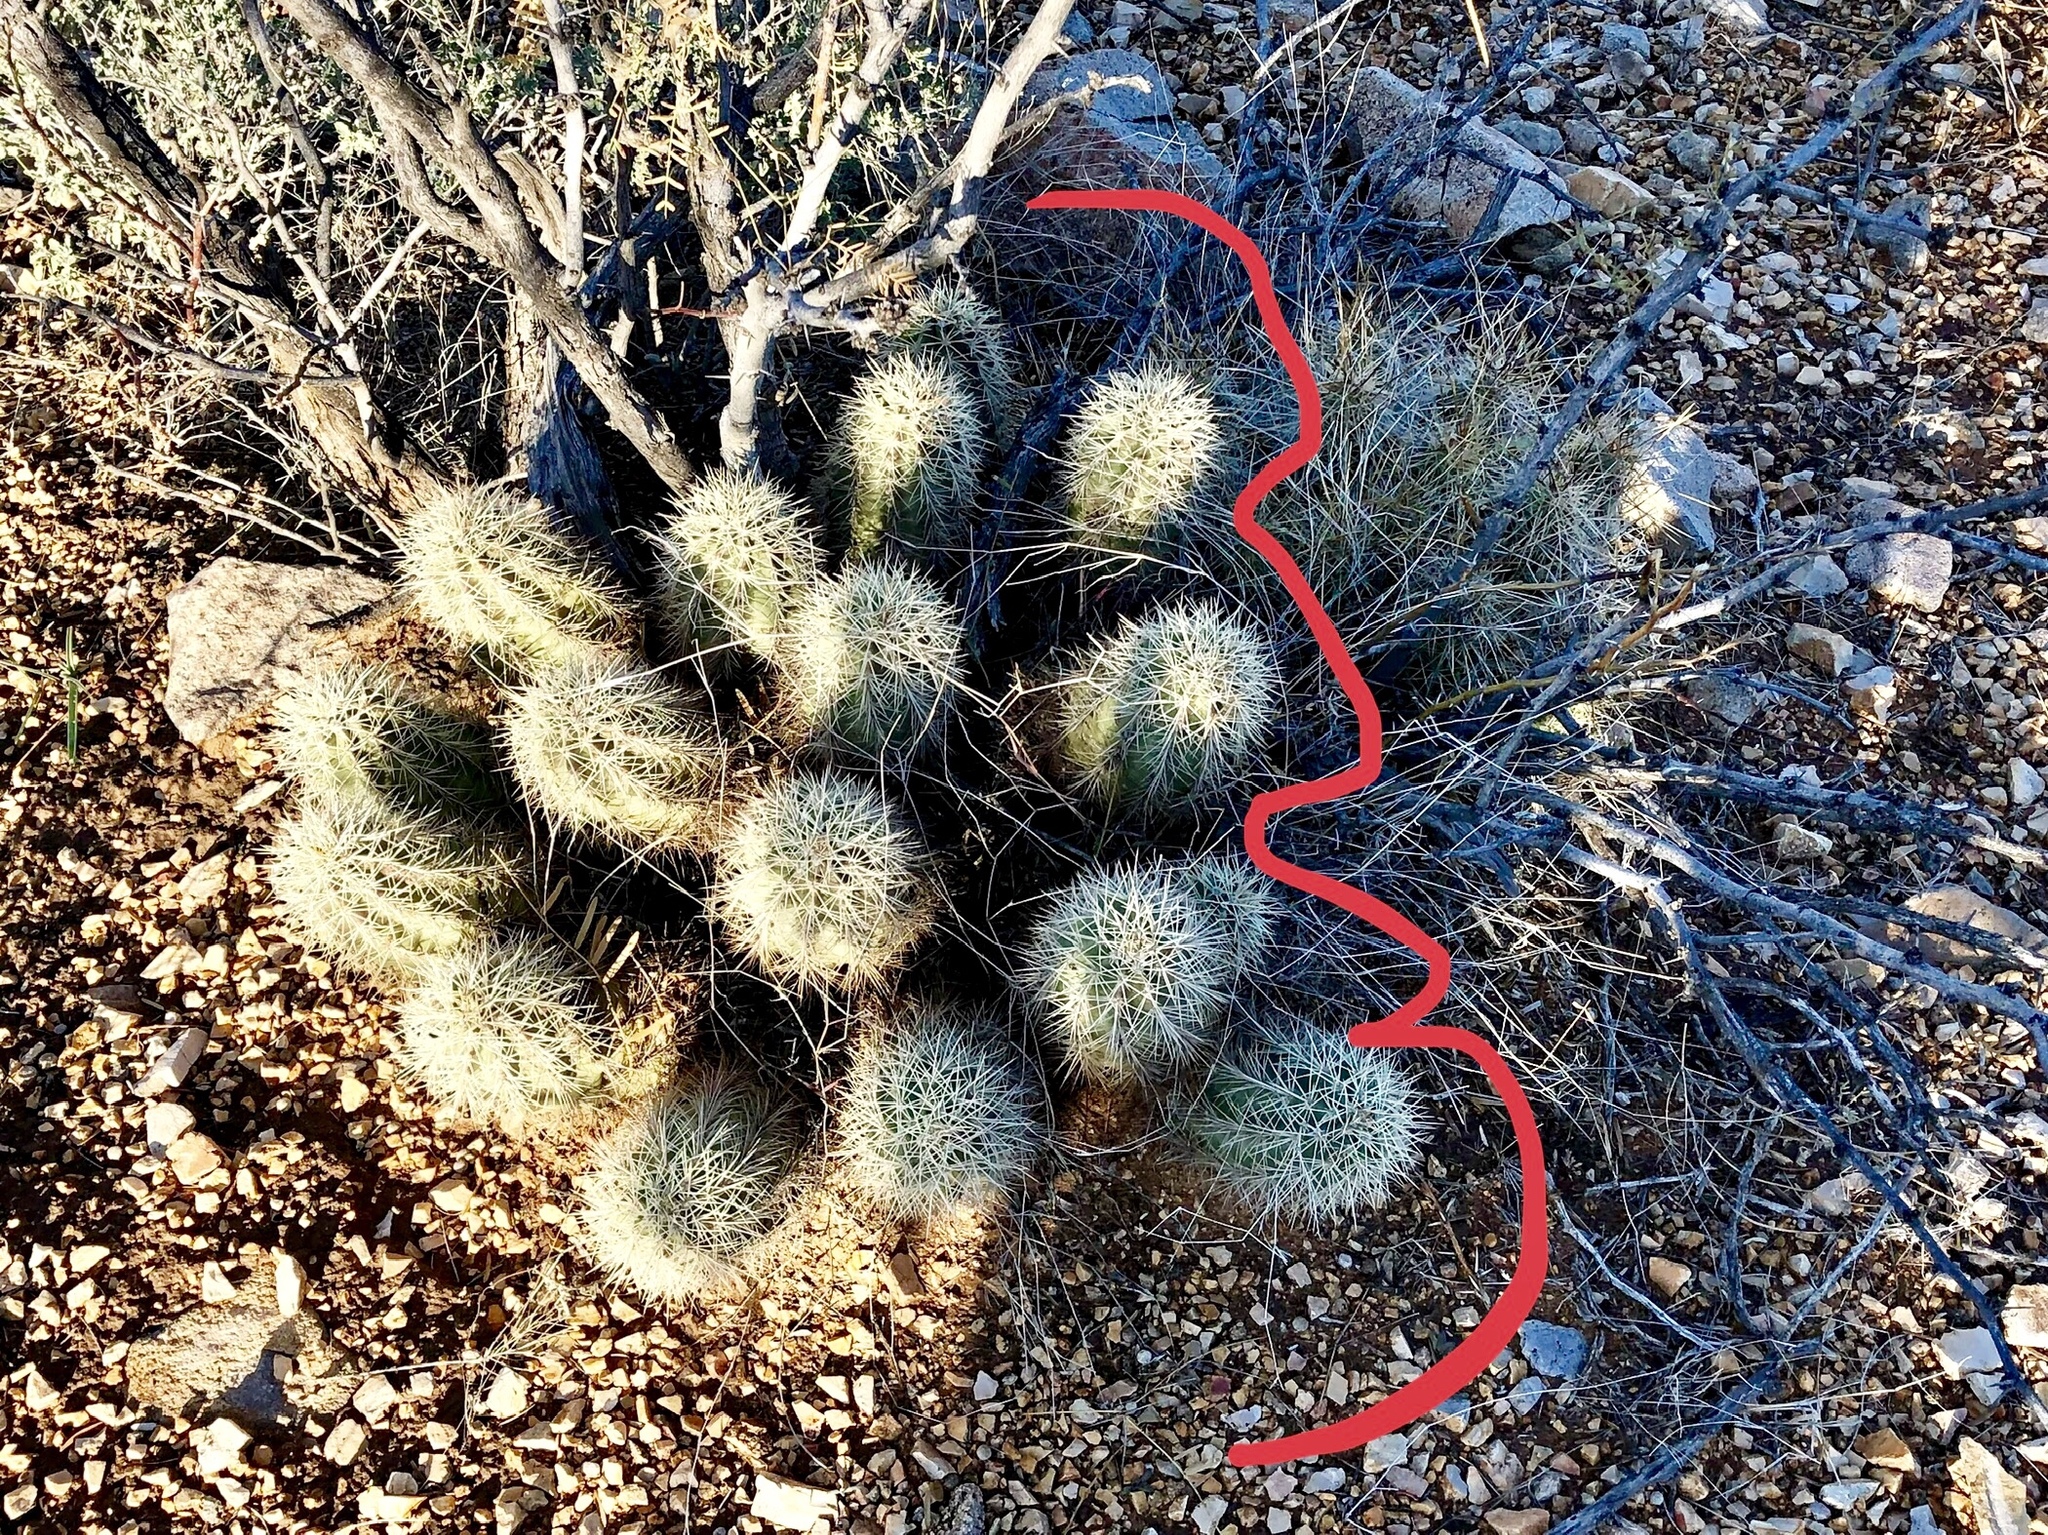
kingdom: Plantae
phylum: Tracheophyta
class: Magnoliopsida
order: Caryophyllales
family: Cactaceae
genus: Echinocereus
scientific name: Echinocereus stramineus
